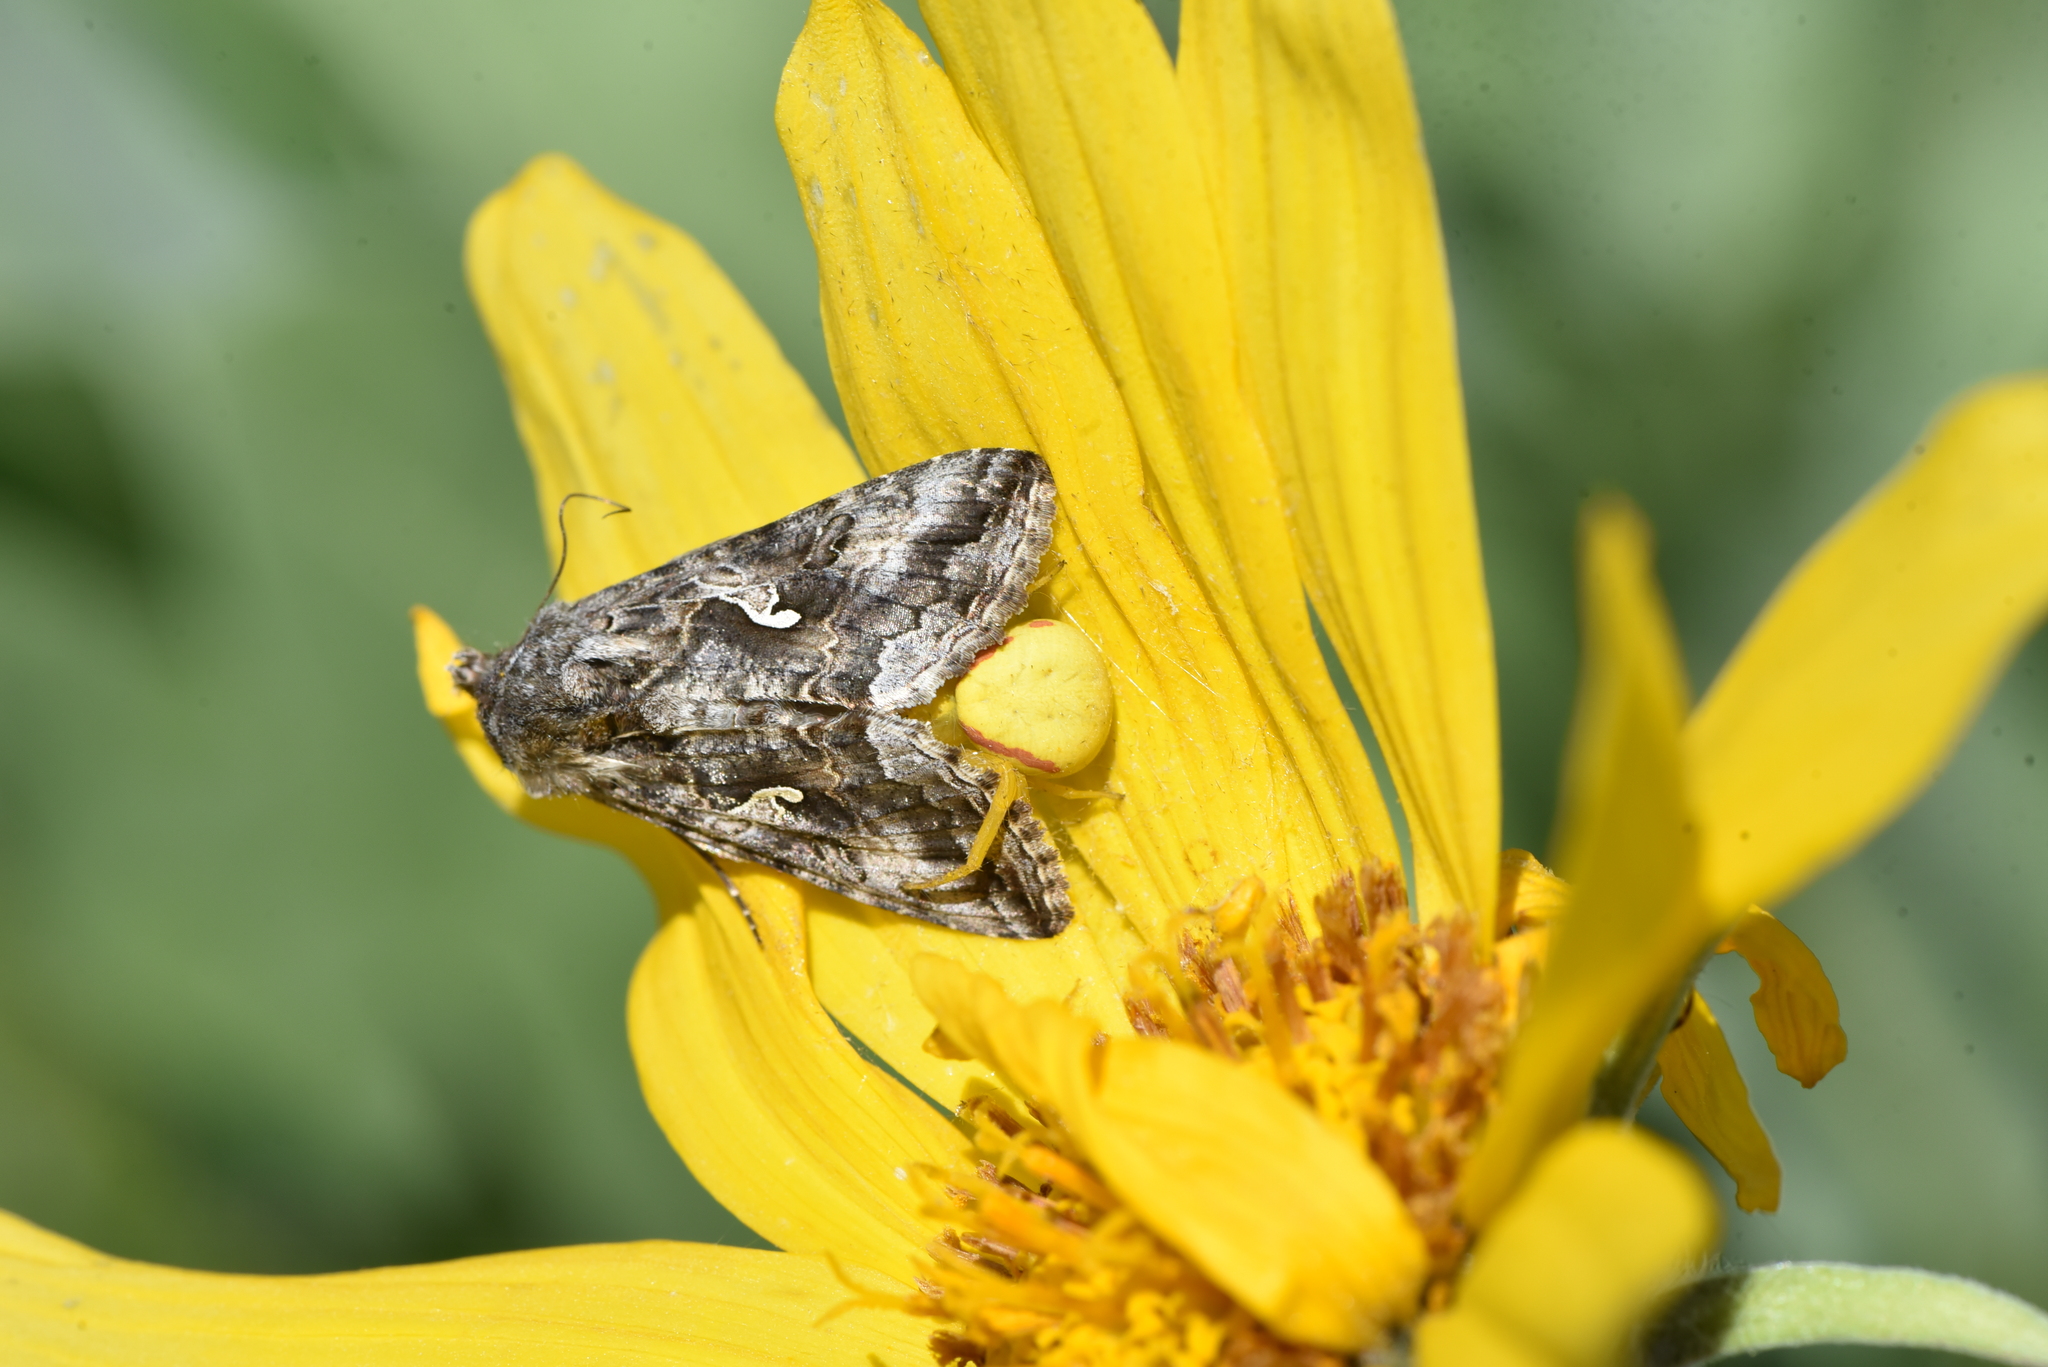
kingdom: Animalia
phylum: Arthropoda
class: Insecta
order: Lepidoptera
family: Noctuidae
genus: Autographa
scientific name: Autographa californica
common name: Alfalfa looper
